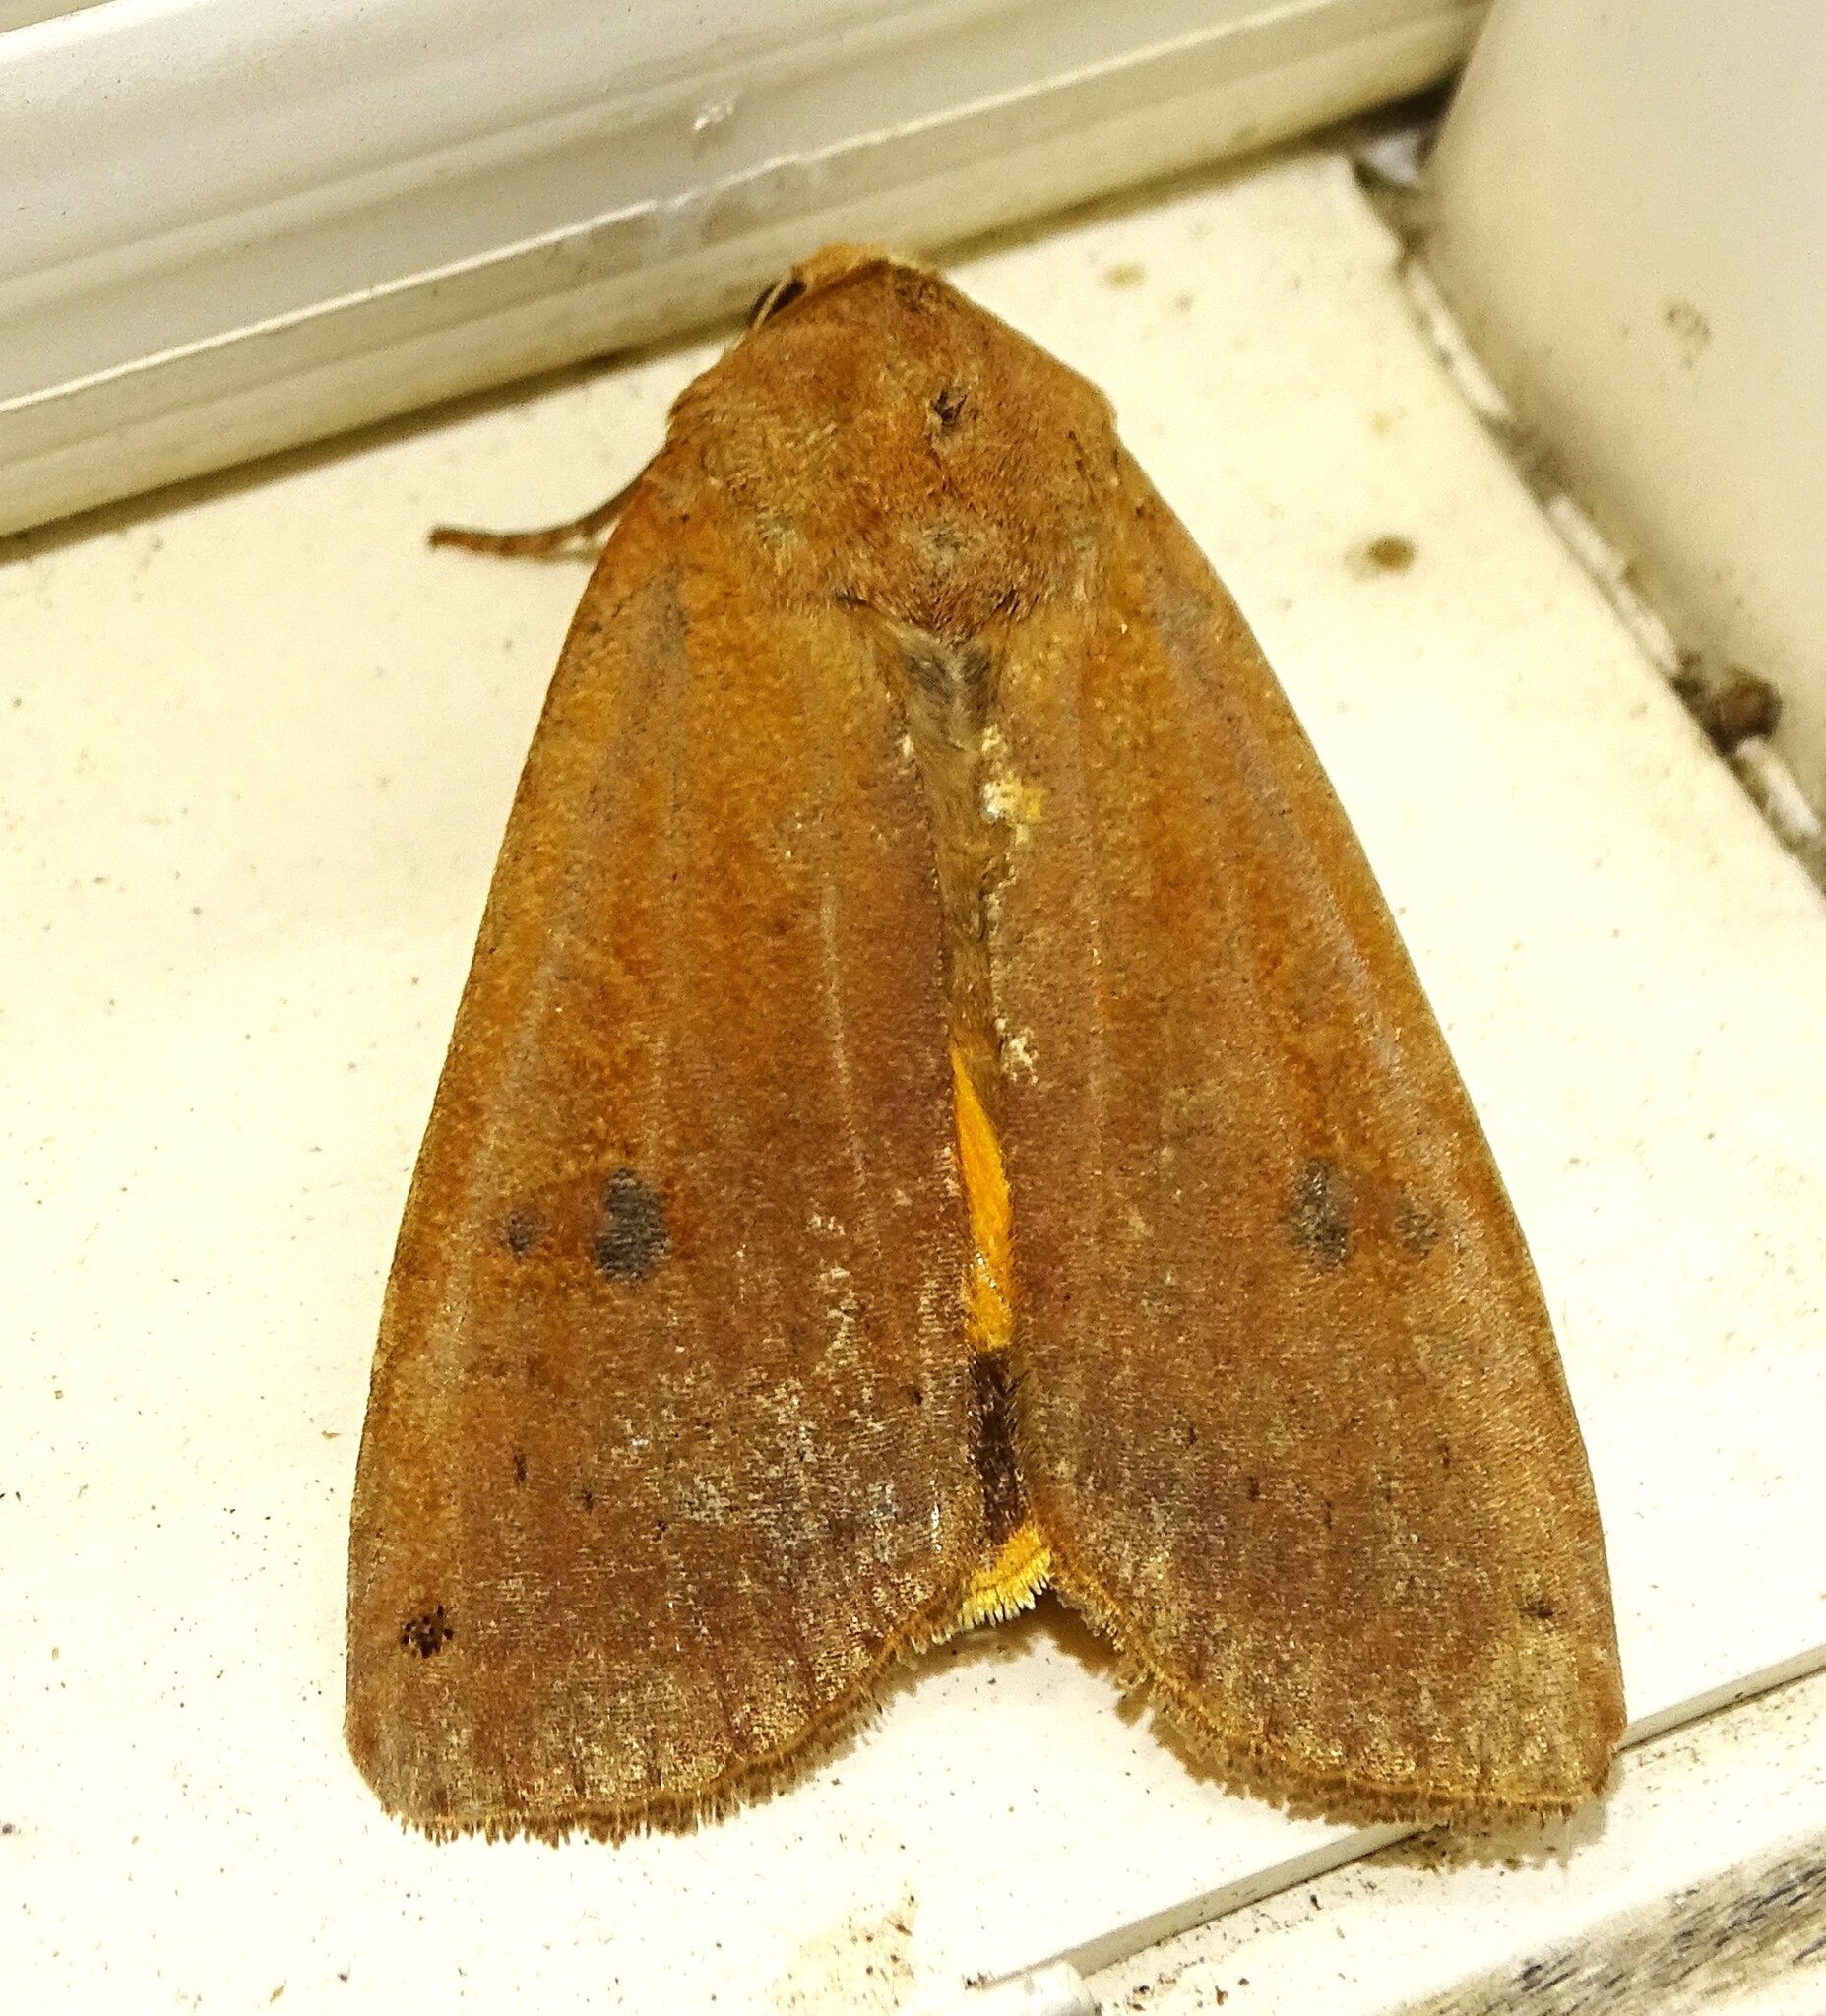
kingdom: Animalia
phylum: Arthropoda
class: Insecta
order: Lepidoptera
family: Noctuidae
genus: Noctua
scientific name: Noctua pronuba
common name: Large yellow underwing
